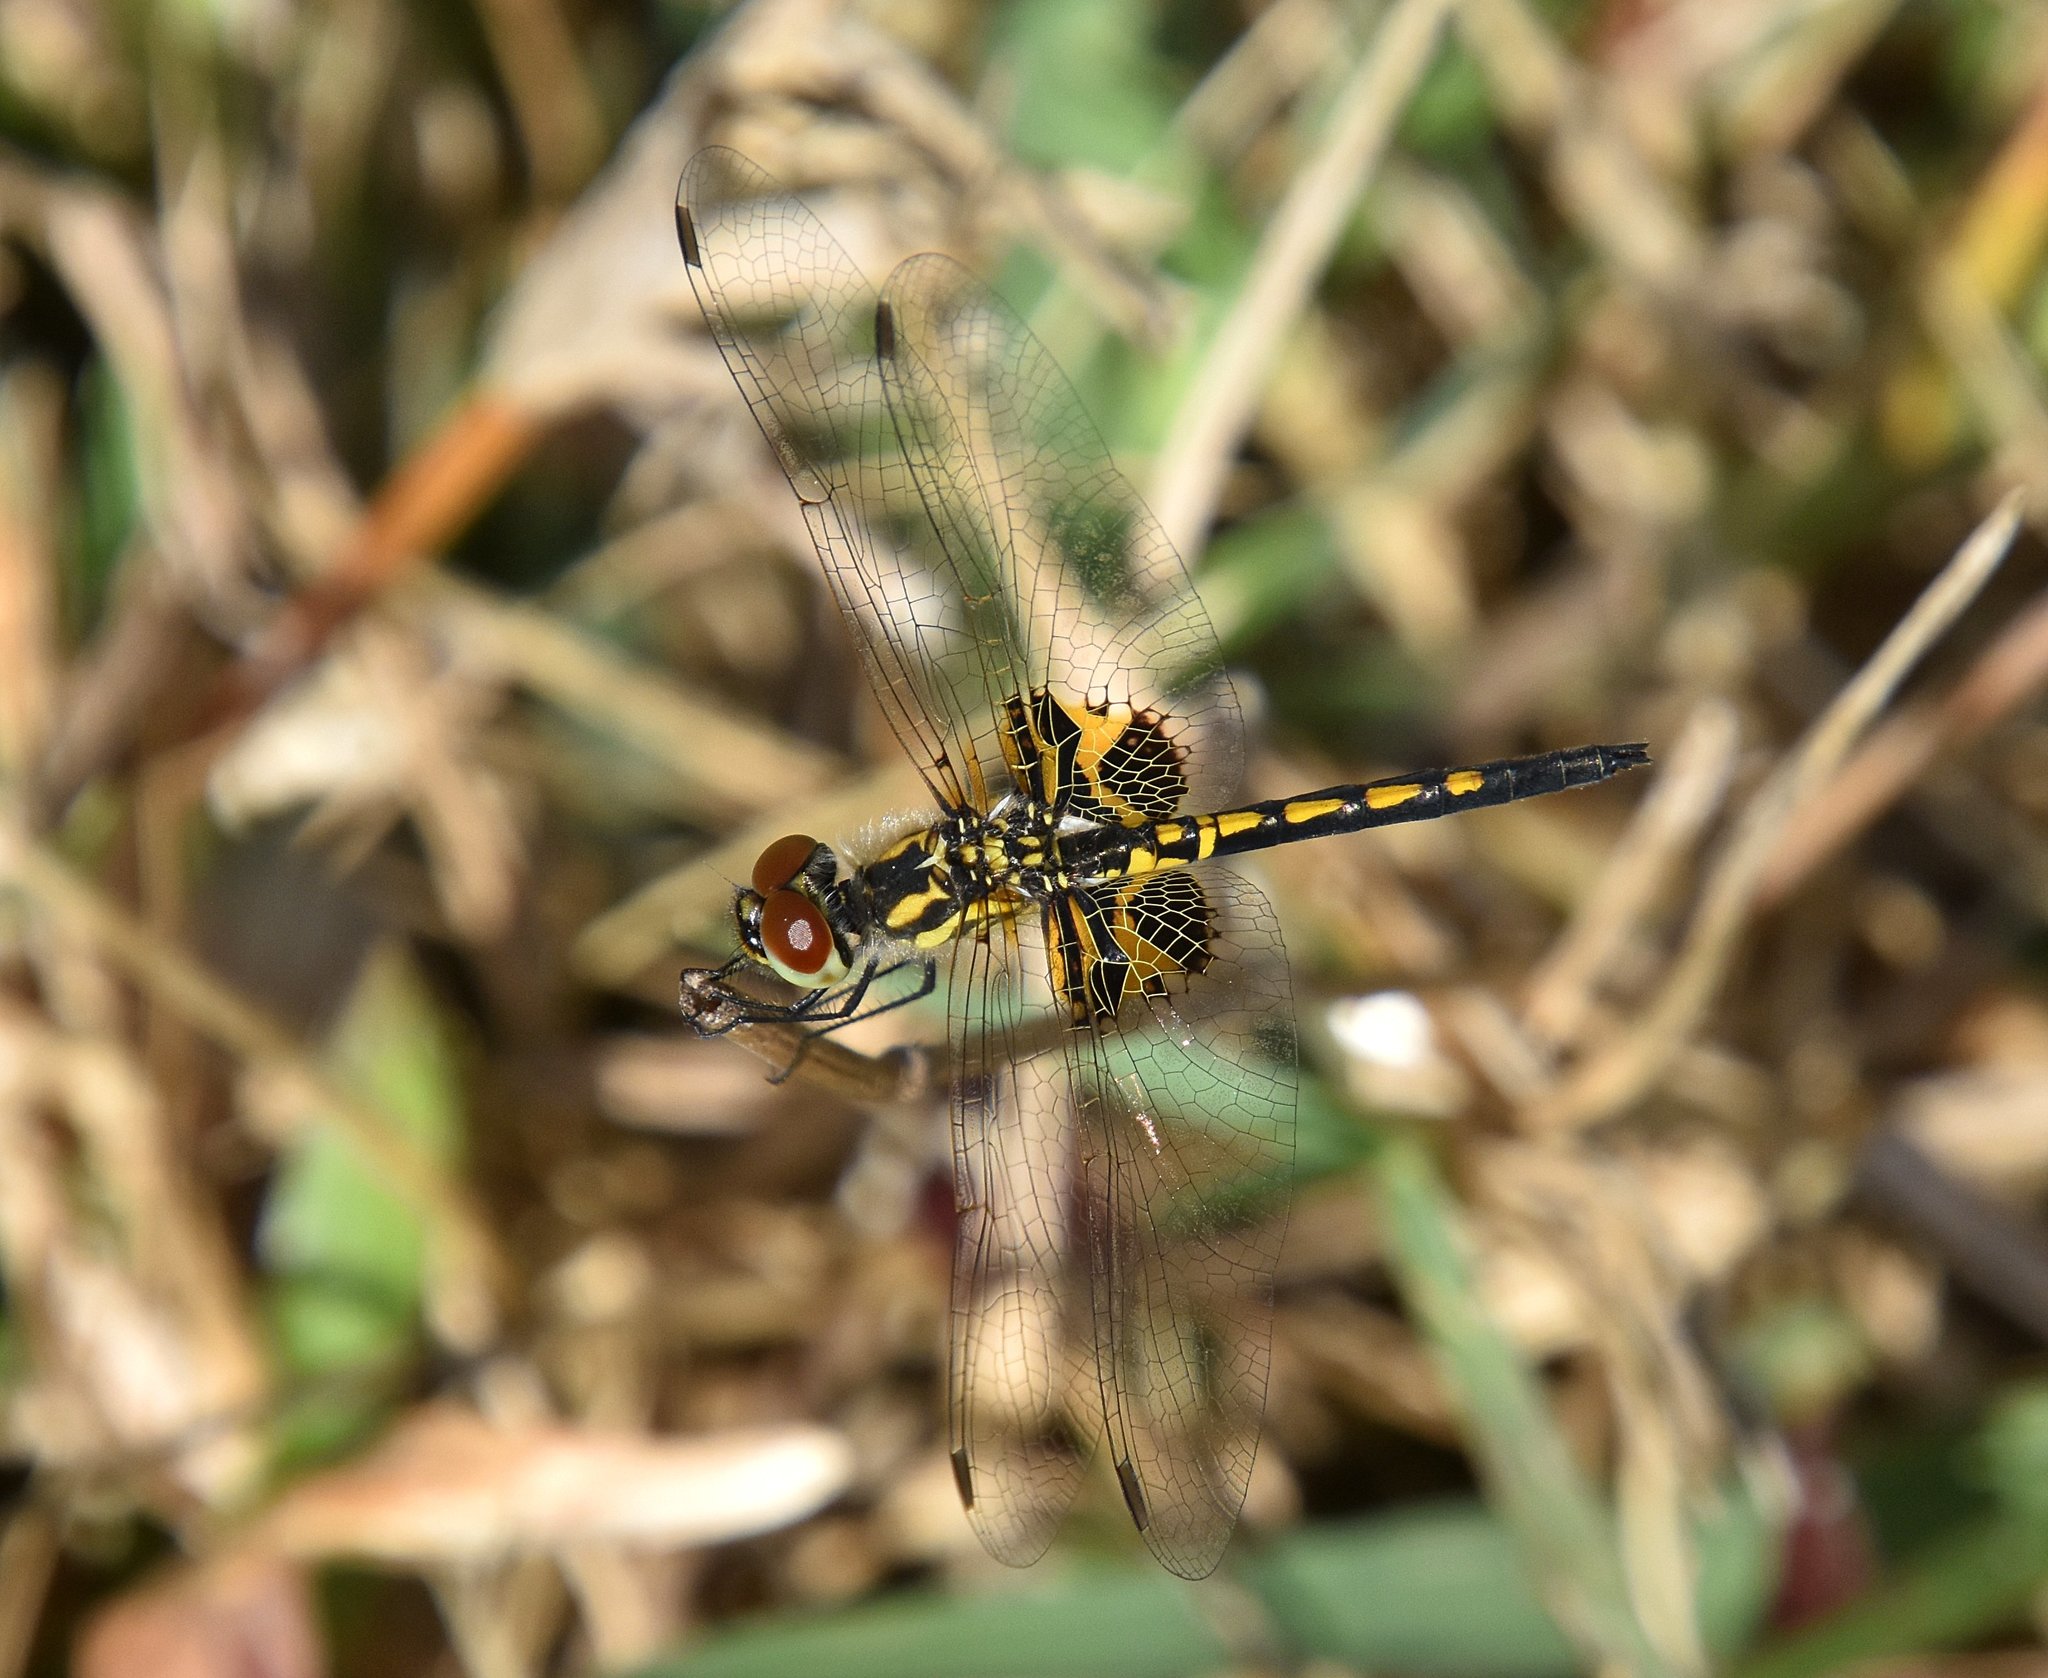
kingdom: Animalia
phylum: Arthropoda
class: Insecta
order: Odonata
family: Libellulidae
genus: Celithemis
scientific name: Celithemis ornata
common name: Ornate pennant
